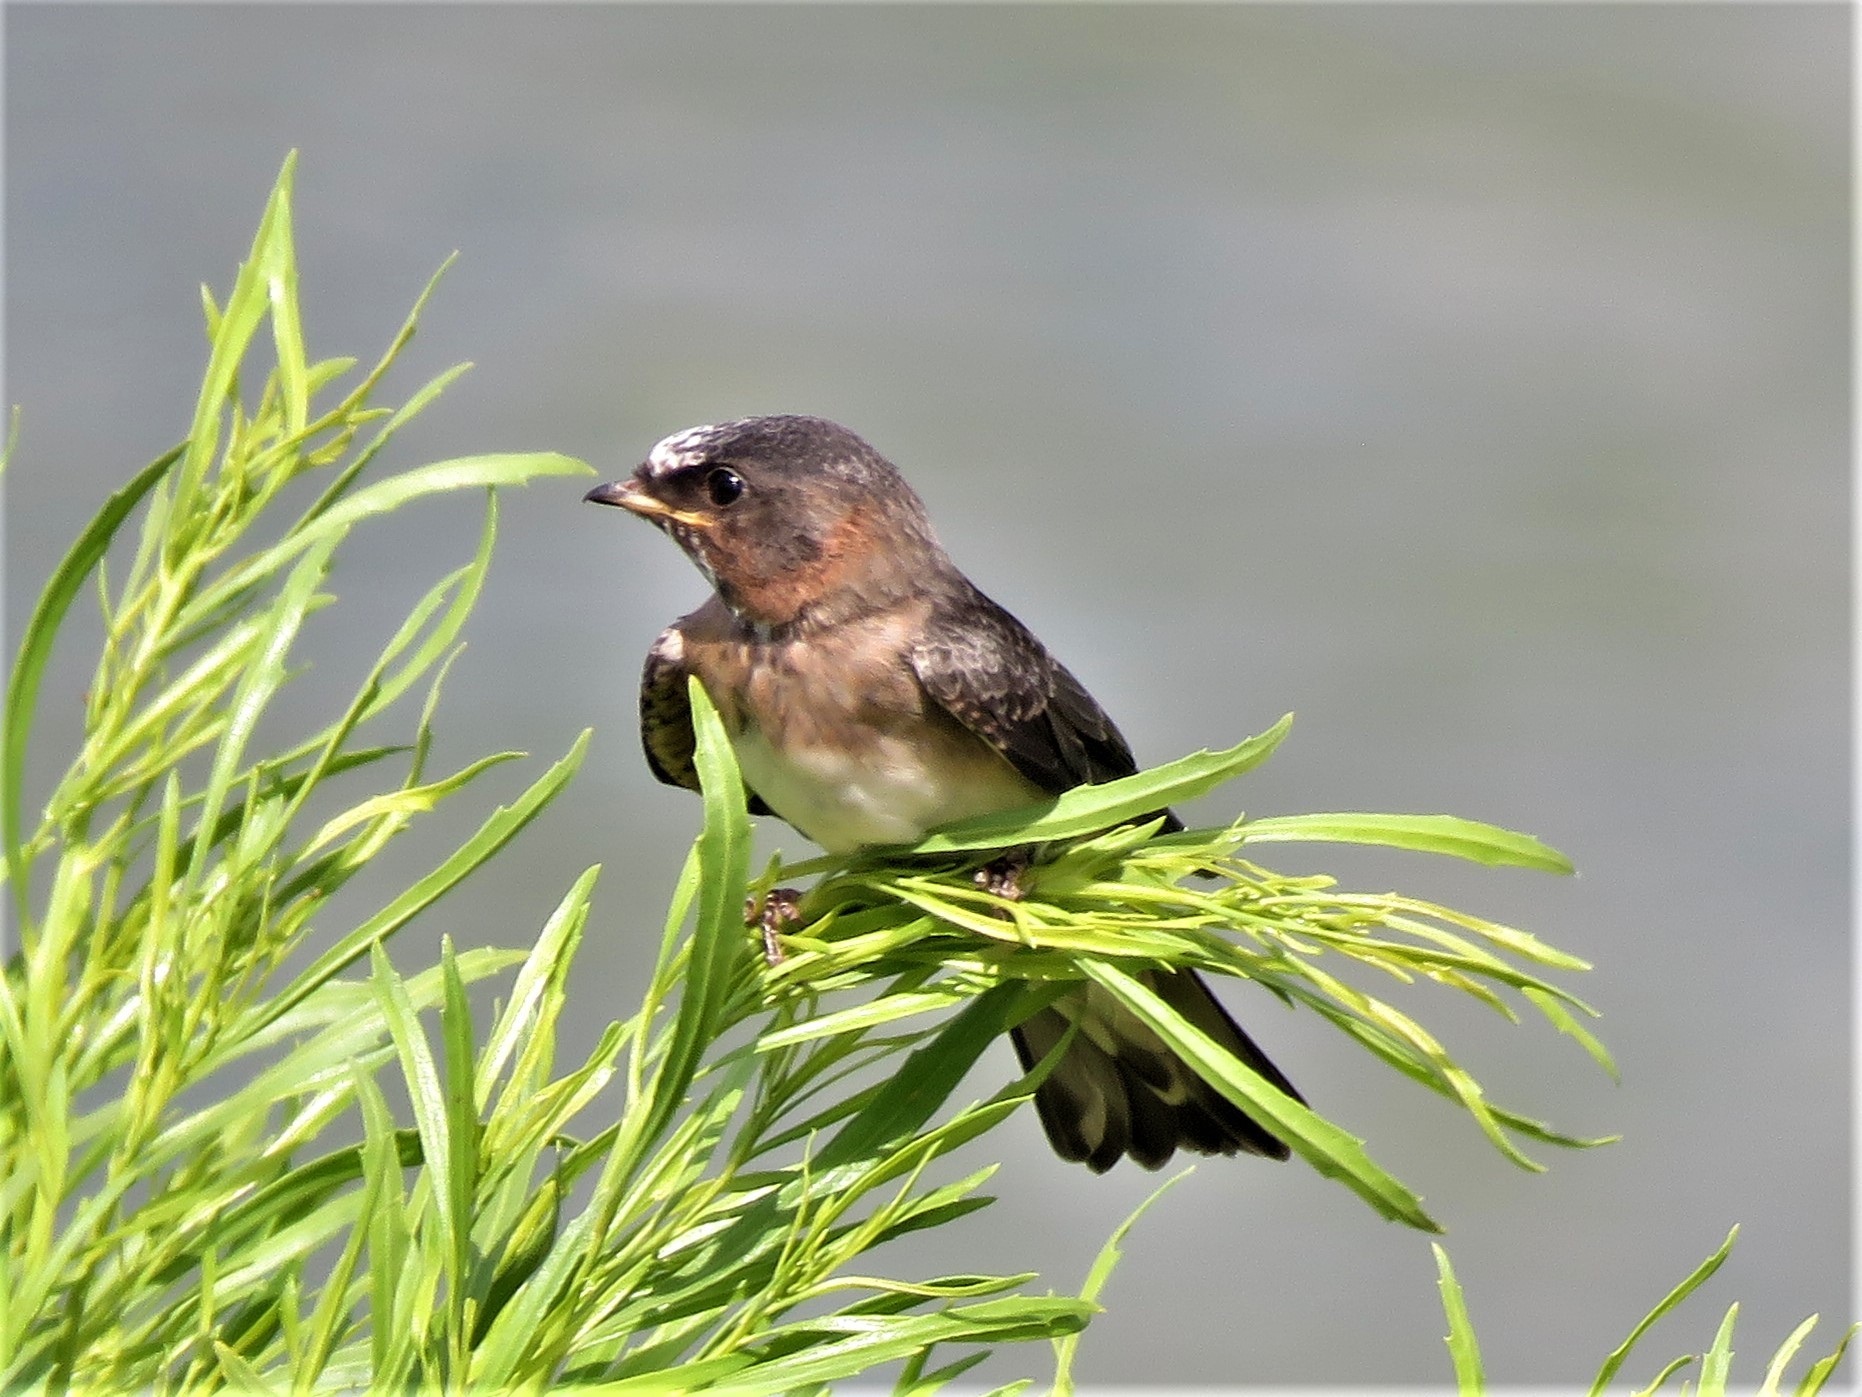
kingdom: Animalia
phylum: Chordata
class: Aves
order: Passeriformes
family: Hirundinidae
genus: Petrochelidon
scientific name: Petrochelidon pyrrhonota
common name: American cliff swallow
